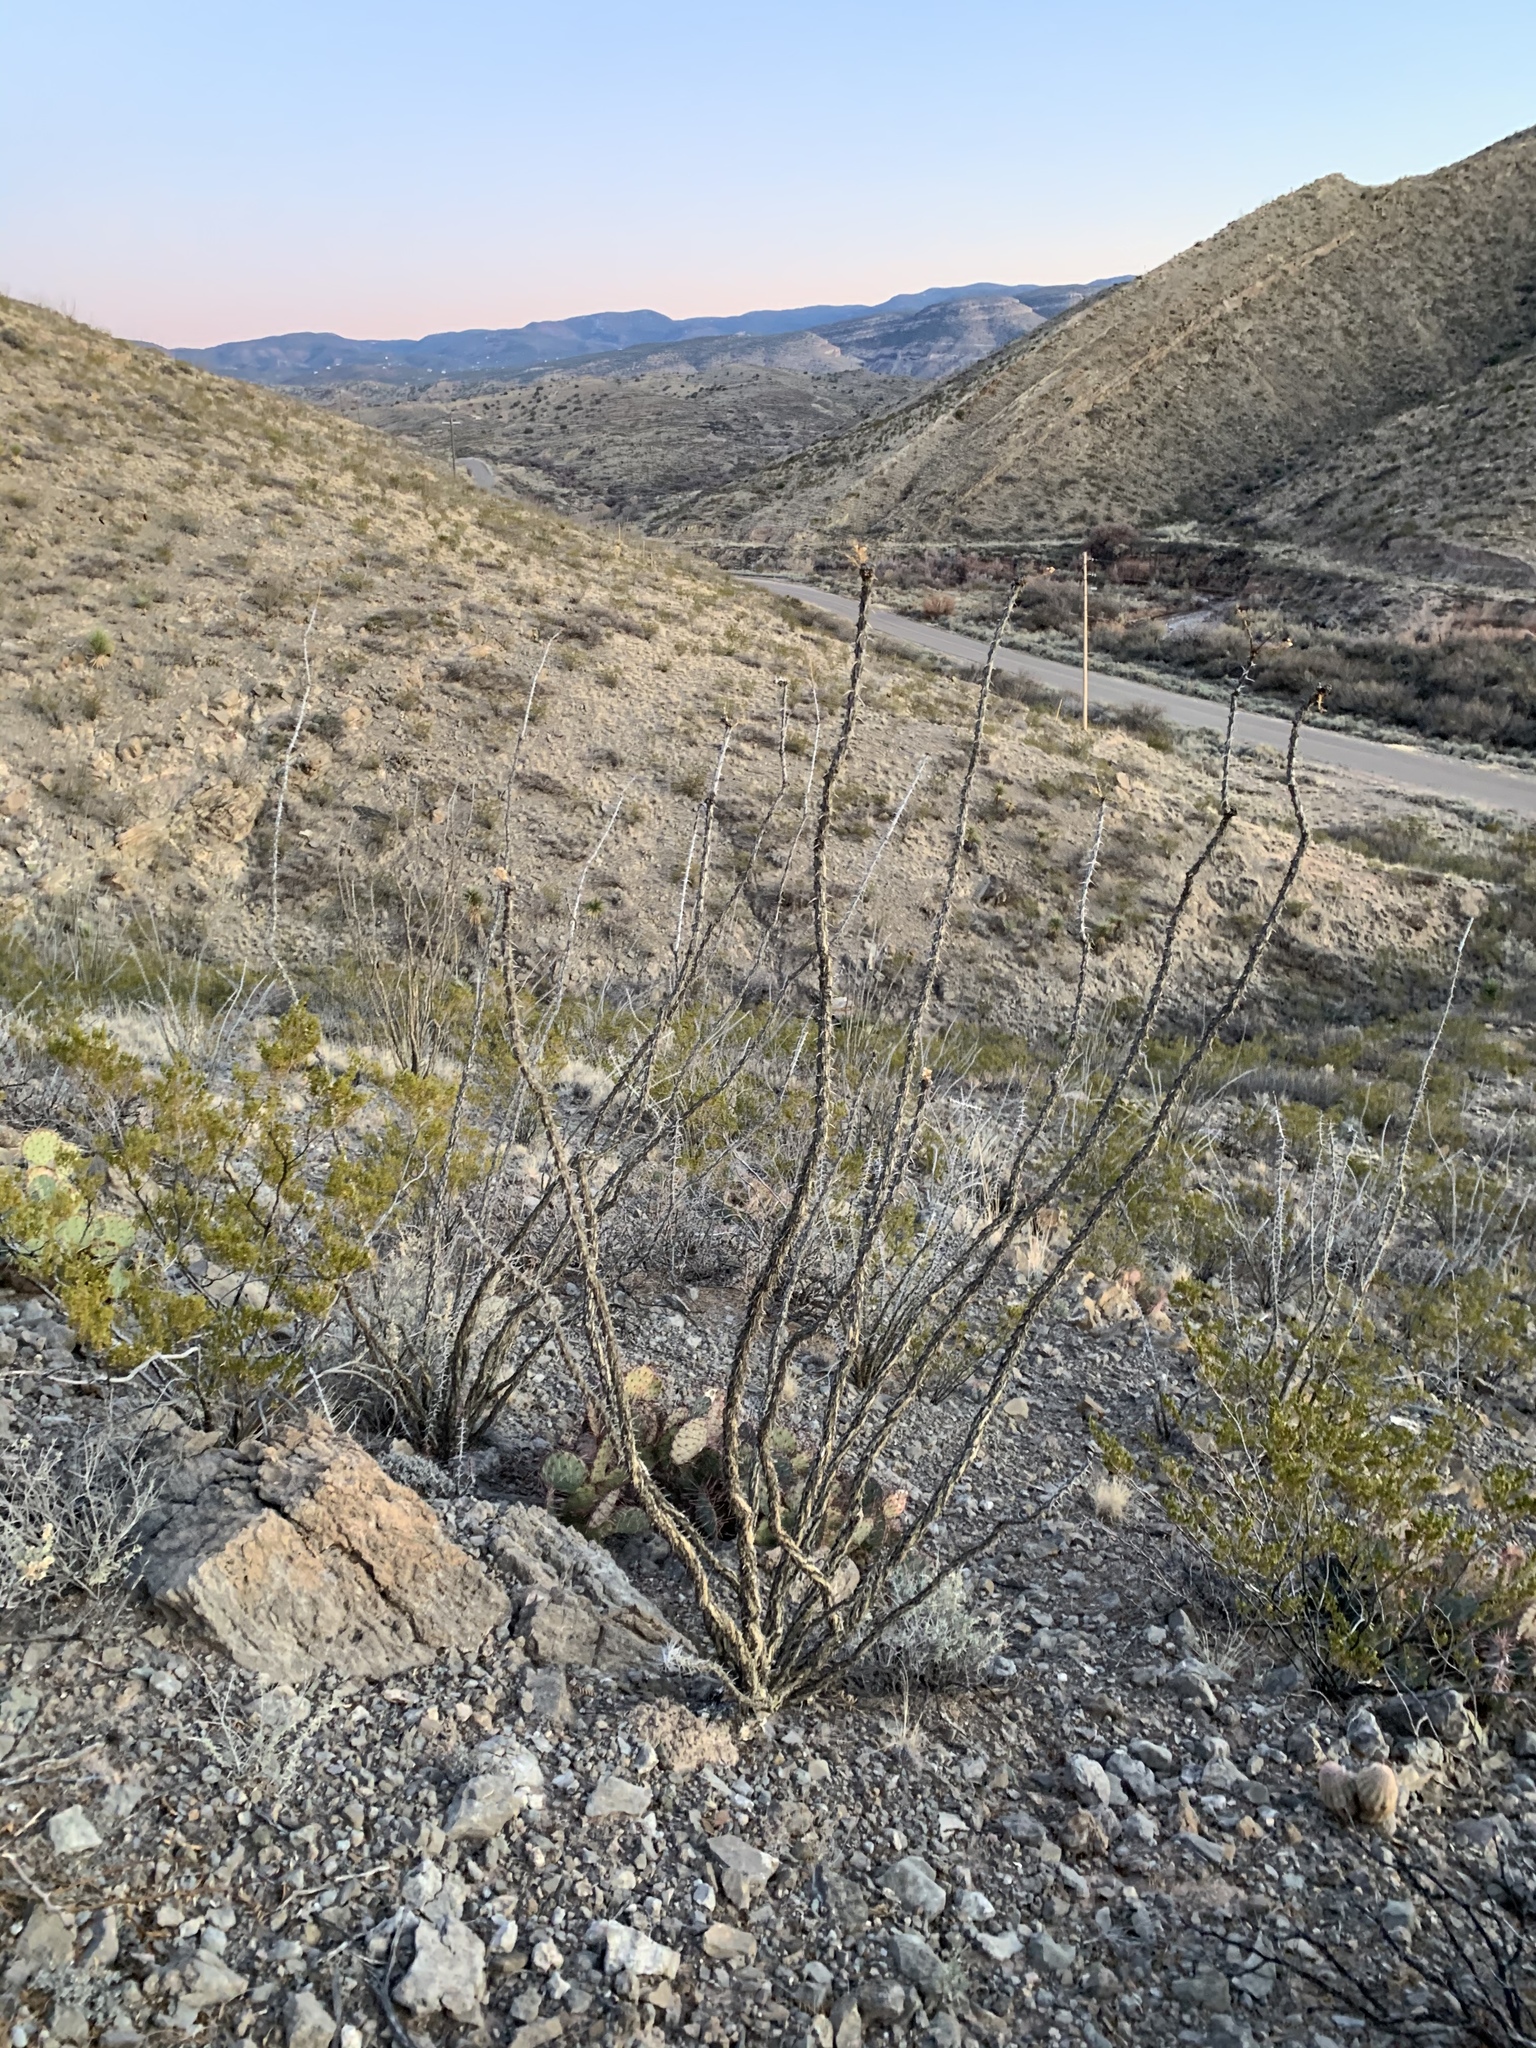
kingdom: Plantae
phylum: Tracheophyta
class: Magnoliopsida
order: Ericales
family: Fouquieriaceae
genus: Fouquieria
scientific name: Fouquieria splendens
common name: Vine-cactus
